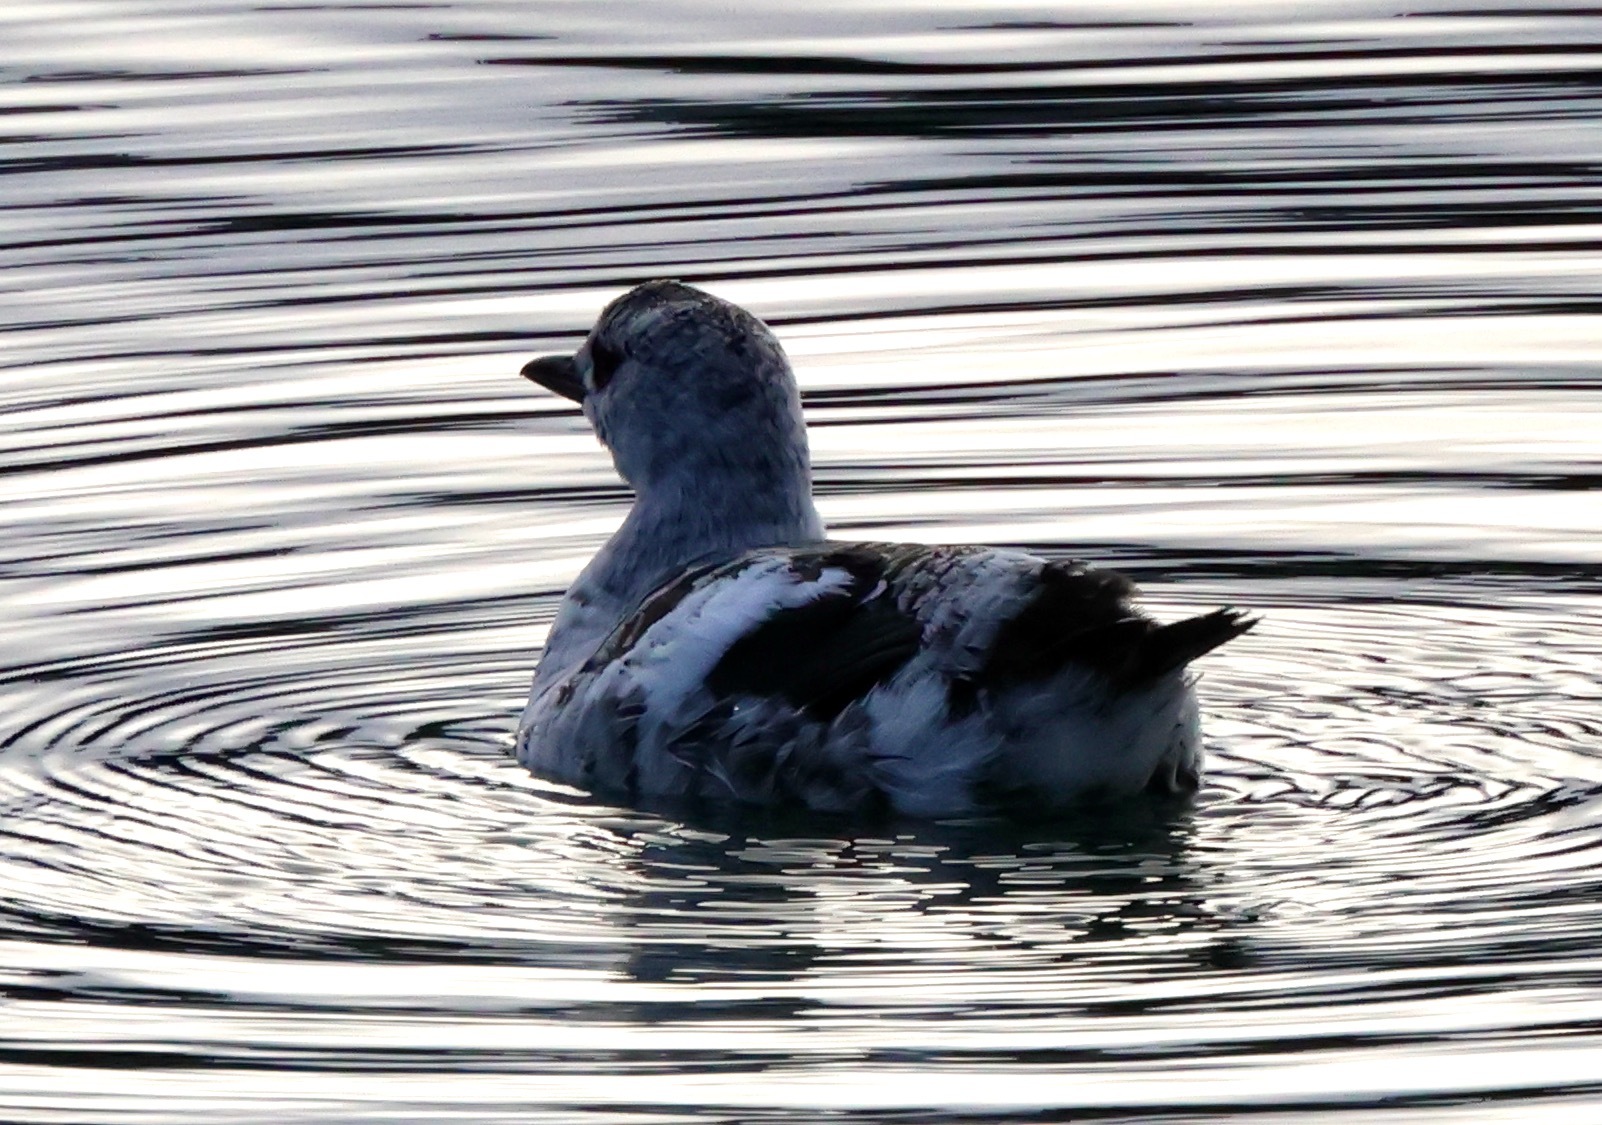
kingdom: Animalia
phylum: Chordata
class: Aves
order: Charadriiformes
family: Alcidae
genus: Cepphus
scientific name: Cepphus grylle
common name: Black guillemot
